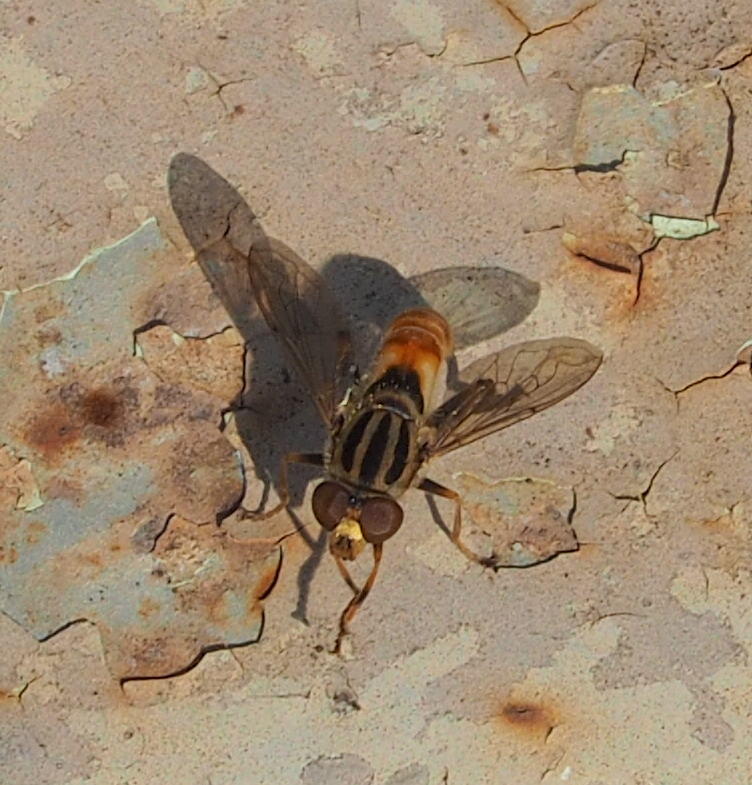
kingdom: Animalia
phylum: Arthropoda
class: Insecta
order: Diptera
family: Syrphidae
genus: Anasimyia
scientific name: Anasimyia
